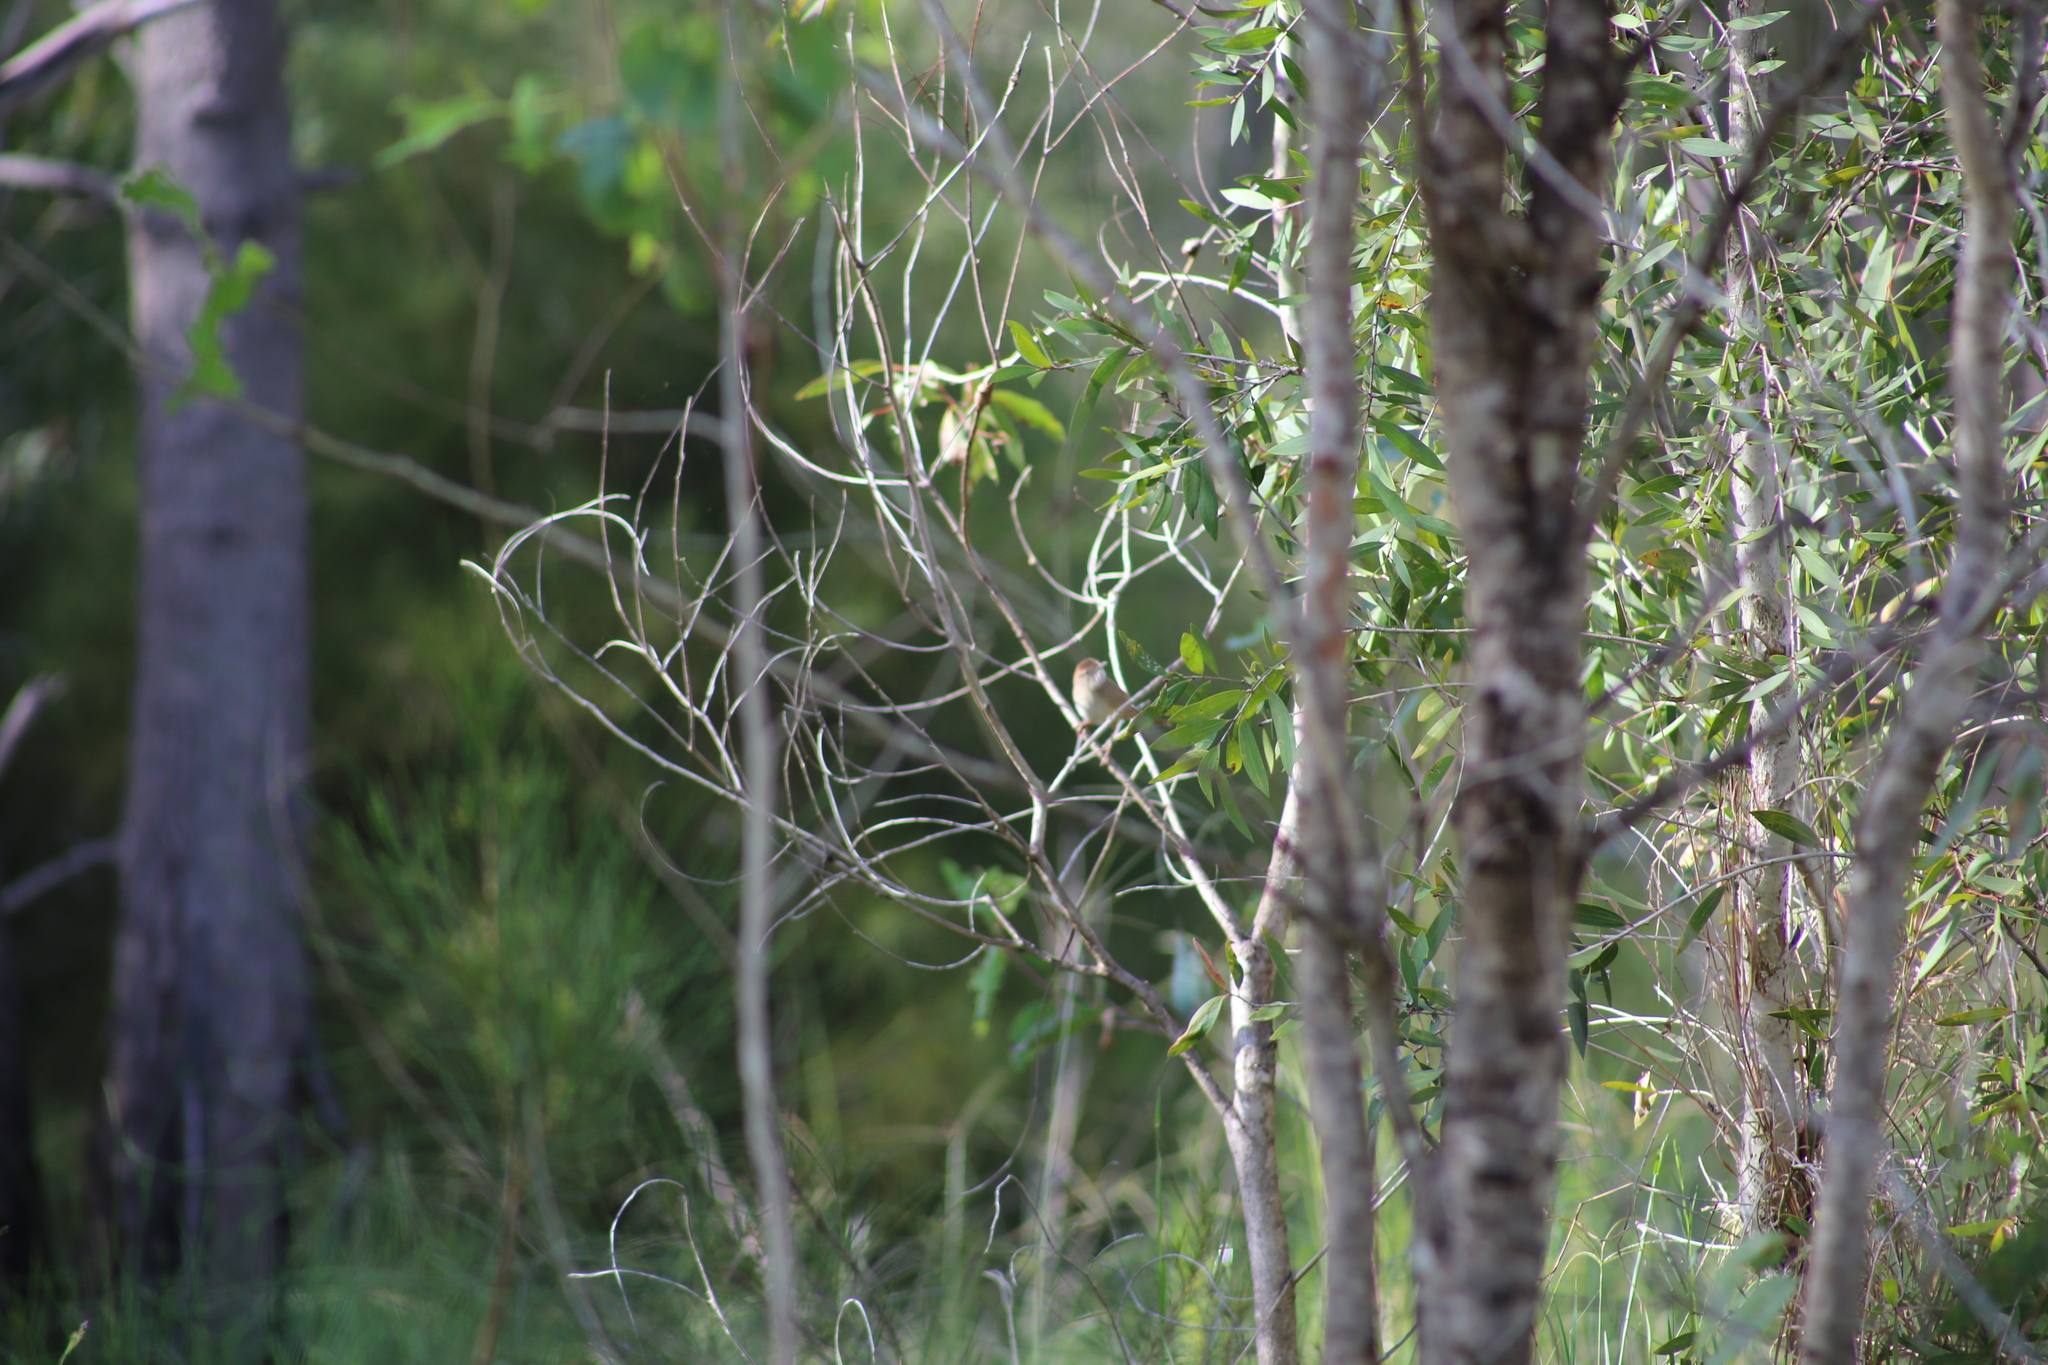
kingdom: Animalia
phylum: Chordata
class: Aves
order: Passeriformes
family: Locustellidae
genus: Megalurus
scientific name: Megalurus timoriensis
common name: Tawny grassbird
